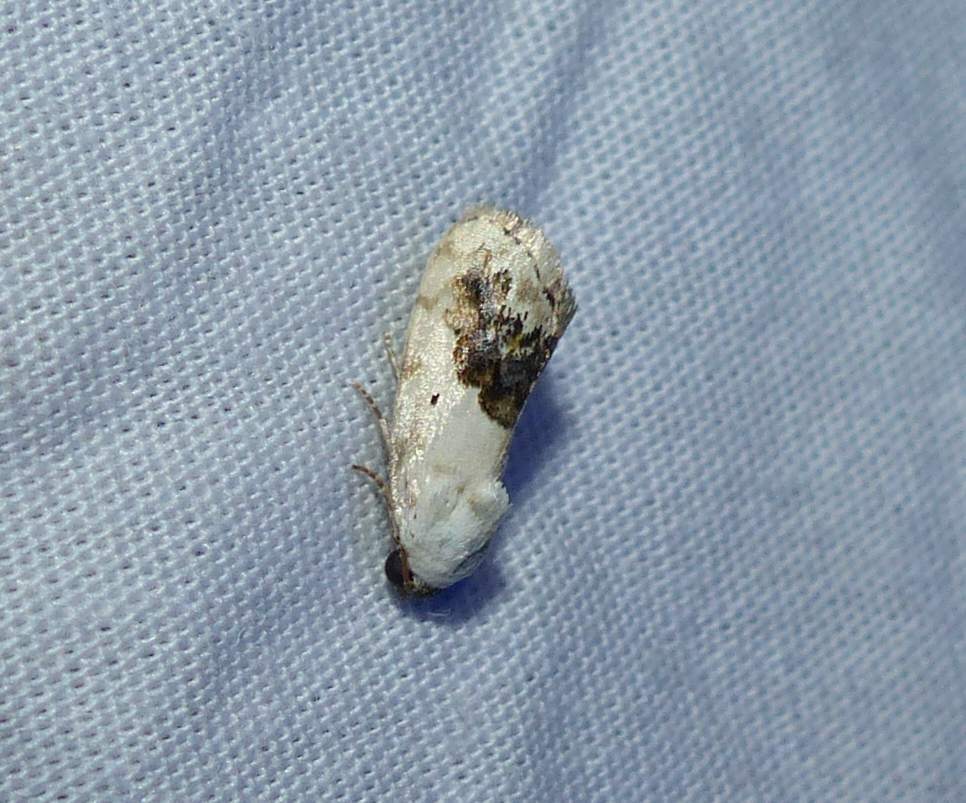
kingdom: Animalia
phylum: Arthropoda
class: Insecta
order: Lepidoptera
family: Noctuidae
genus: Acontia
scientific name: Acontia erastrioides
